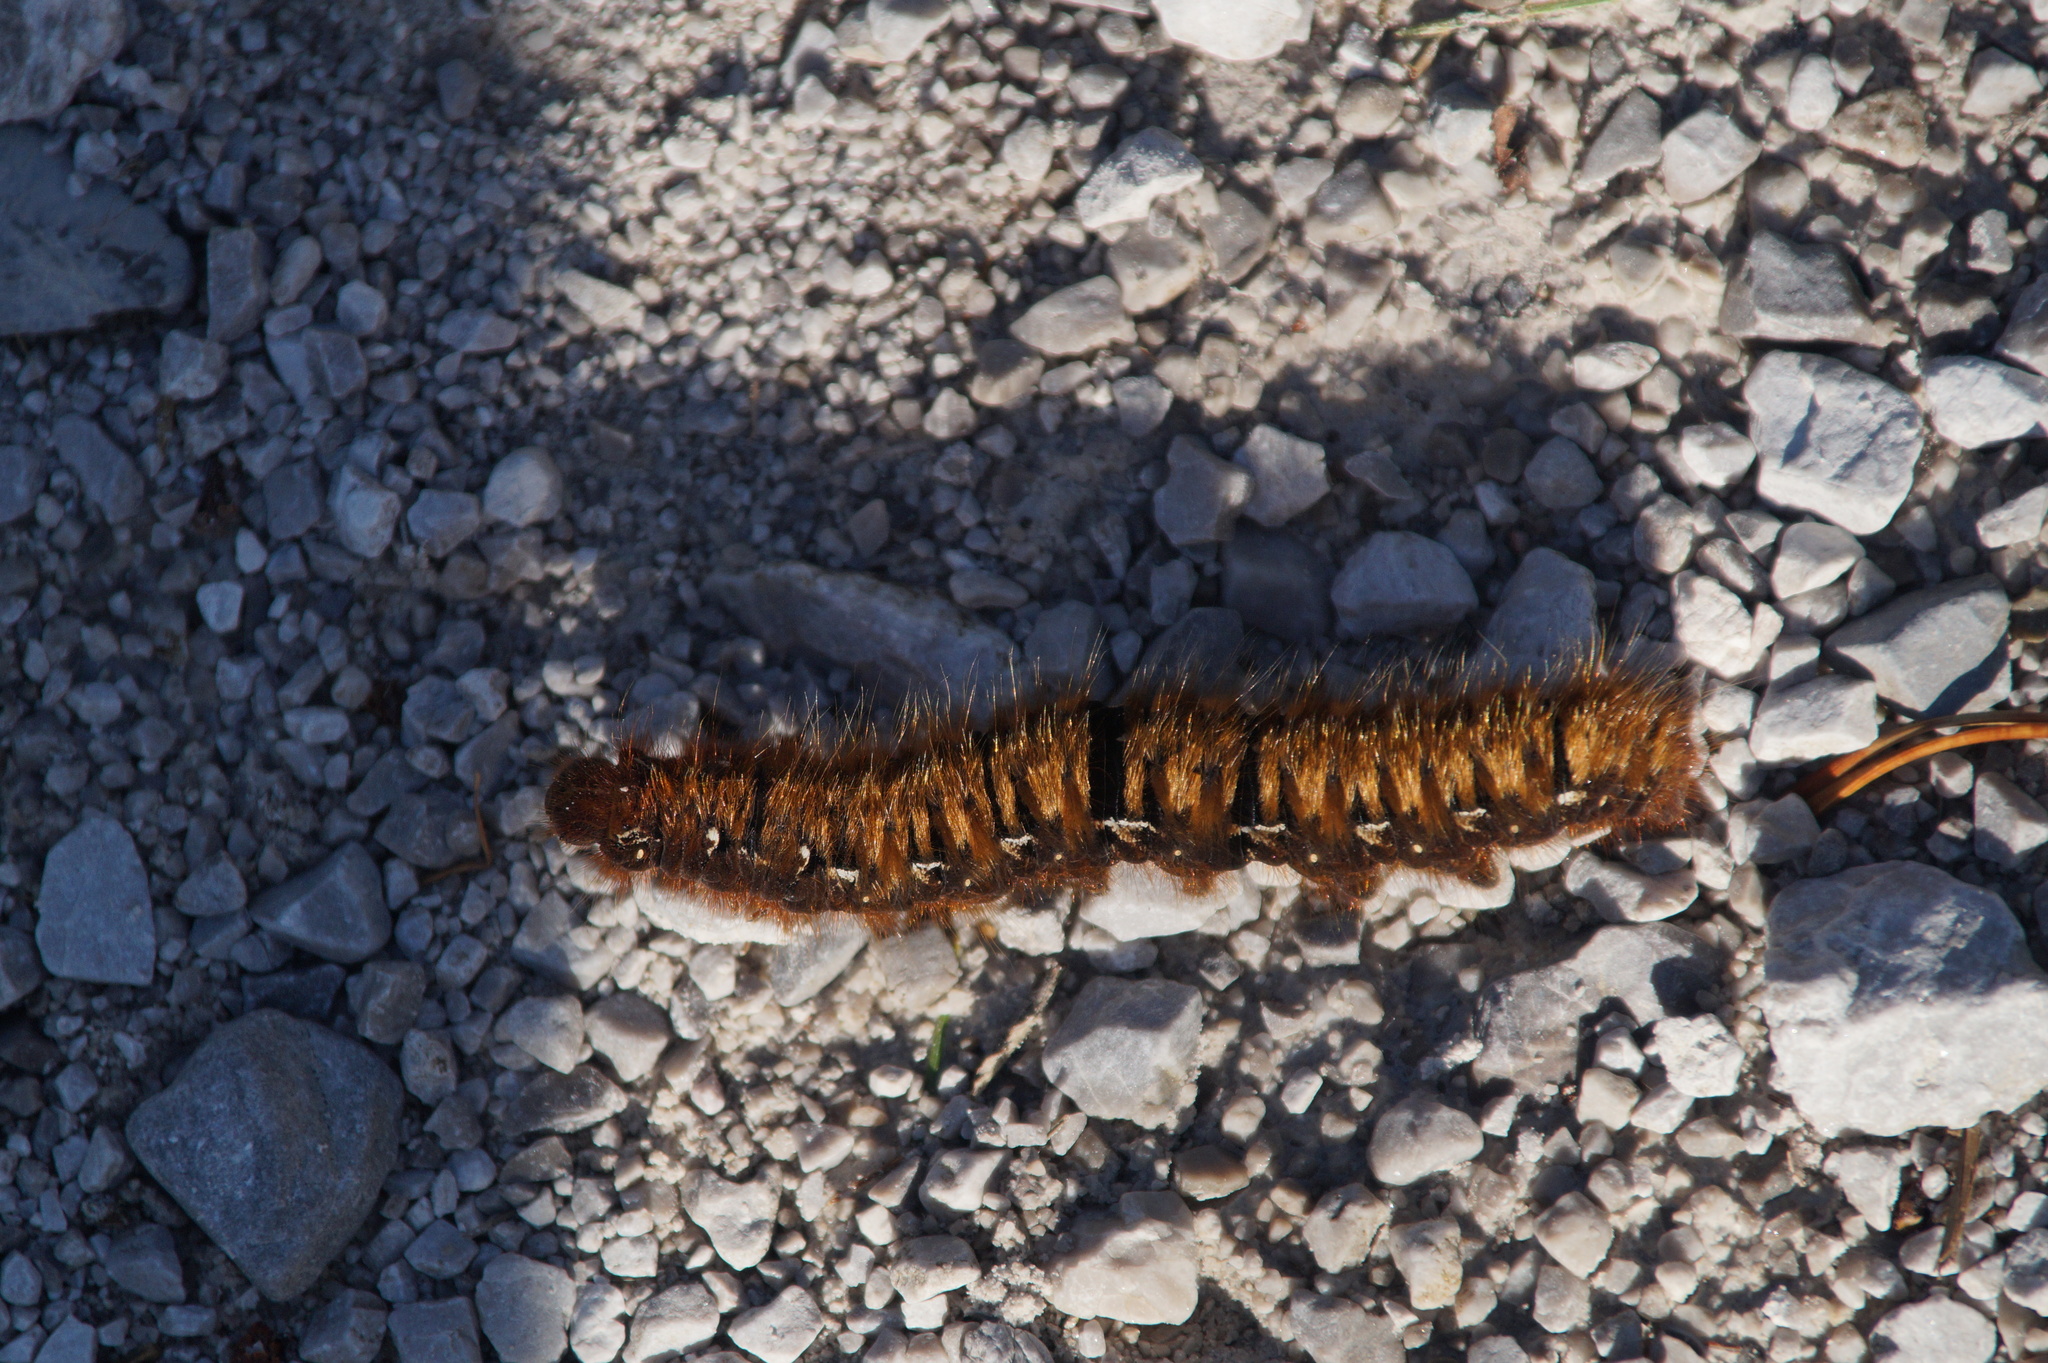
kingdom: Animalia
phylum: Arthropoda
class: Insecta
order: Lepidoptera
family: Lasiocampidae
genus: Lasiocampa
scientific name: Lasiocampa quercus
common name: Oak eggar
